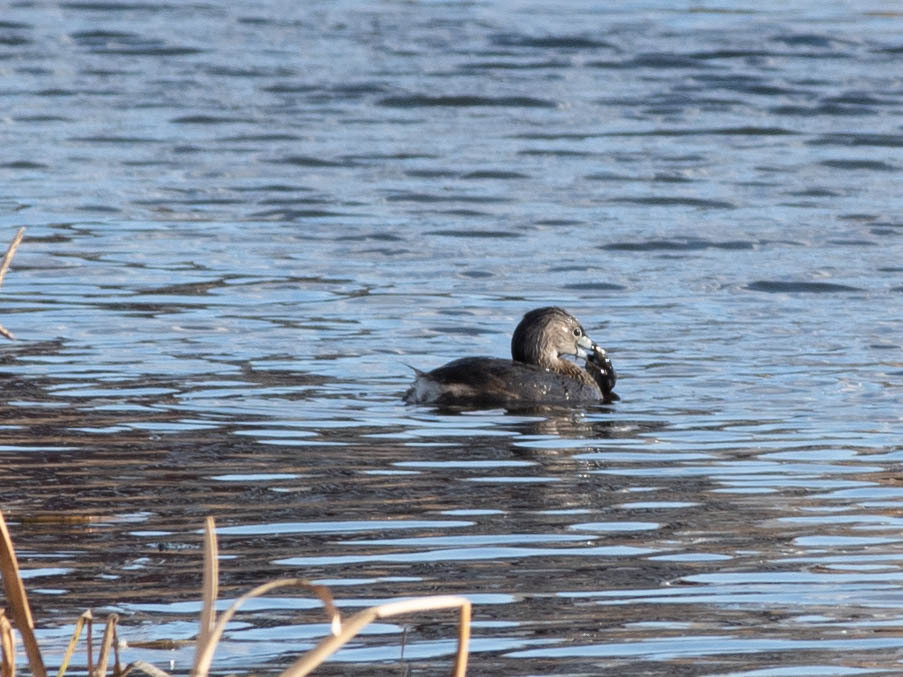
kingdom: Animalia
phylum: Chordata
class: Aves
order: Podicipediformes
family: Podicipedidae
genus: Podilymbus
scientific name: Podilymbus podiceps
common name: Pied-billed grebe
